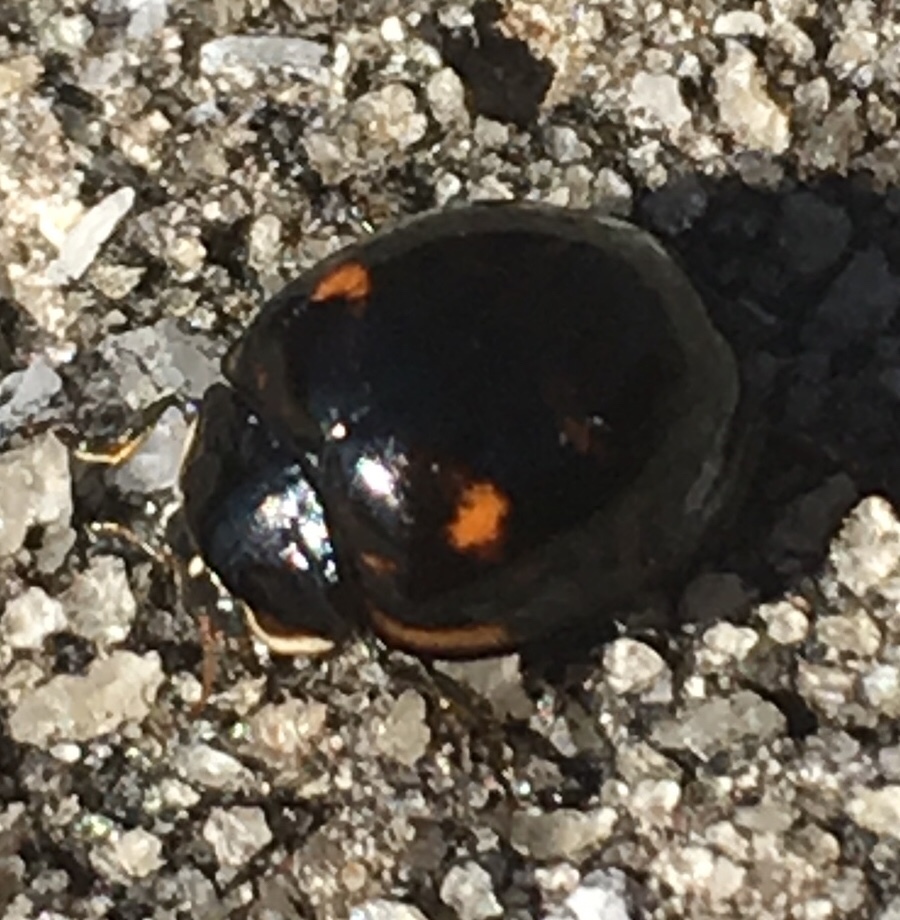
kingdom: Animalia
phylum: Arthropoda
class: Insecta
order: Coleoptera
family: Coccinellidae
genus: Harmonia
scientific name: Harmonia axyridis
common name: Harlequin ladybird
